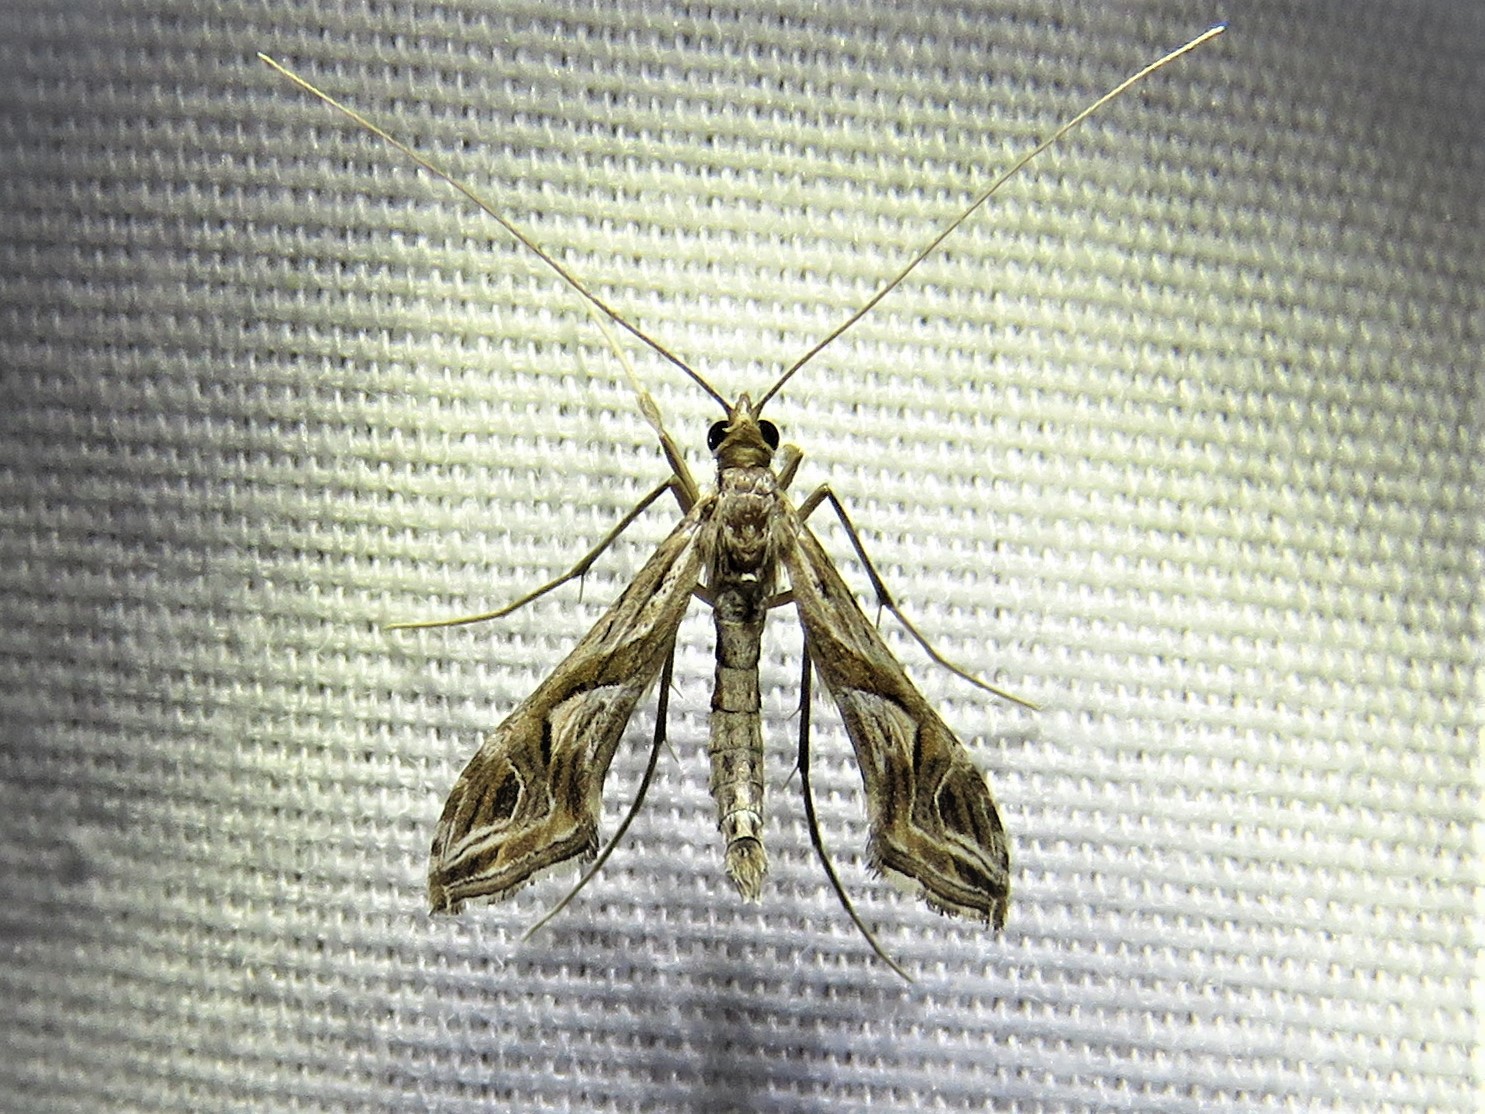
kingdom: Animalia
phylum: Arthropoda
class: Insecta
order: Lepidoptera
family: Crambidae
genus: Lineodes
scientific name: Lineodes integra
